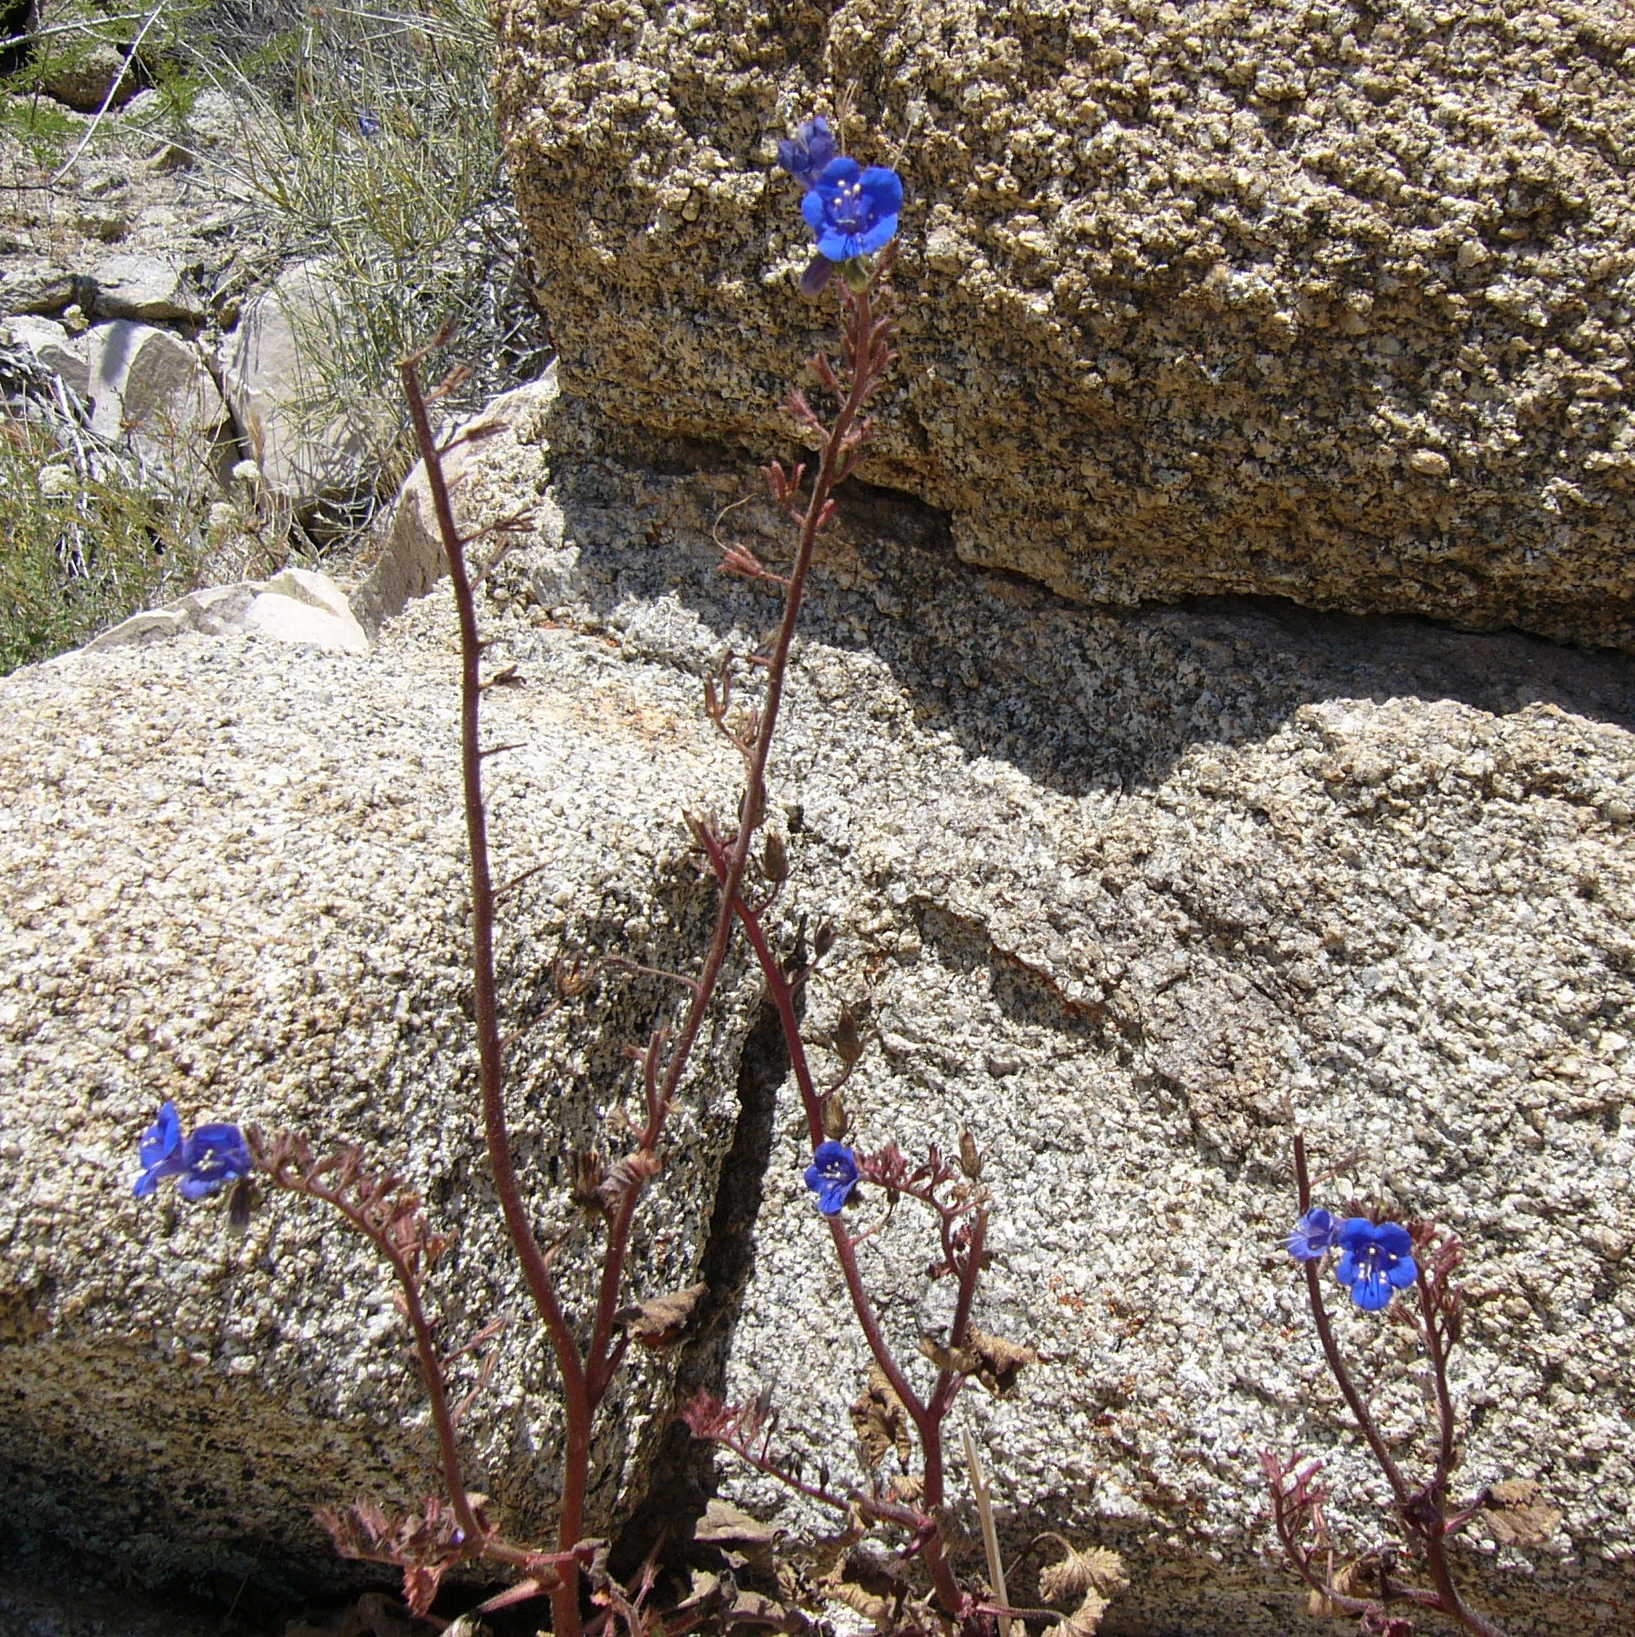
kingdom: Plantae
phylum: Tracheophyta
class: Magnoliopsida
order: Boraginales
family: Hydrophyllaceae
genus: Phacelia
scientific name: Phacelia campanularia
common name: California bluebell
